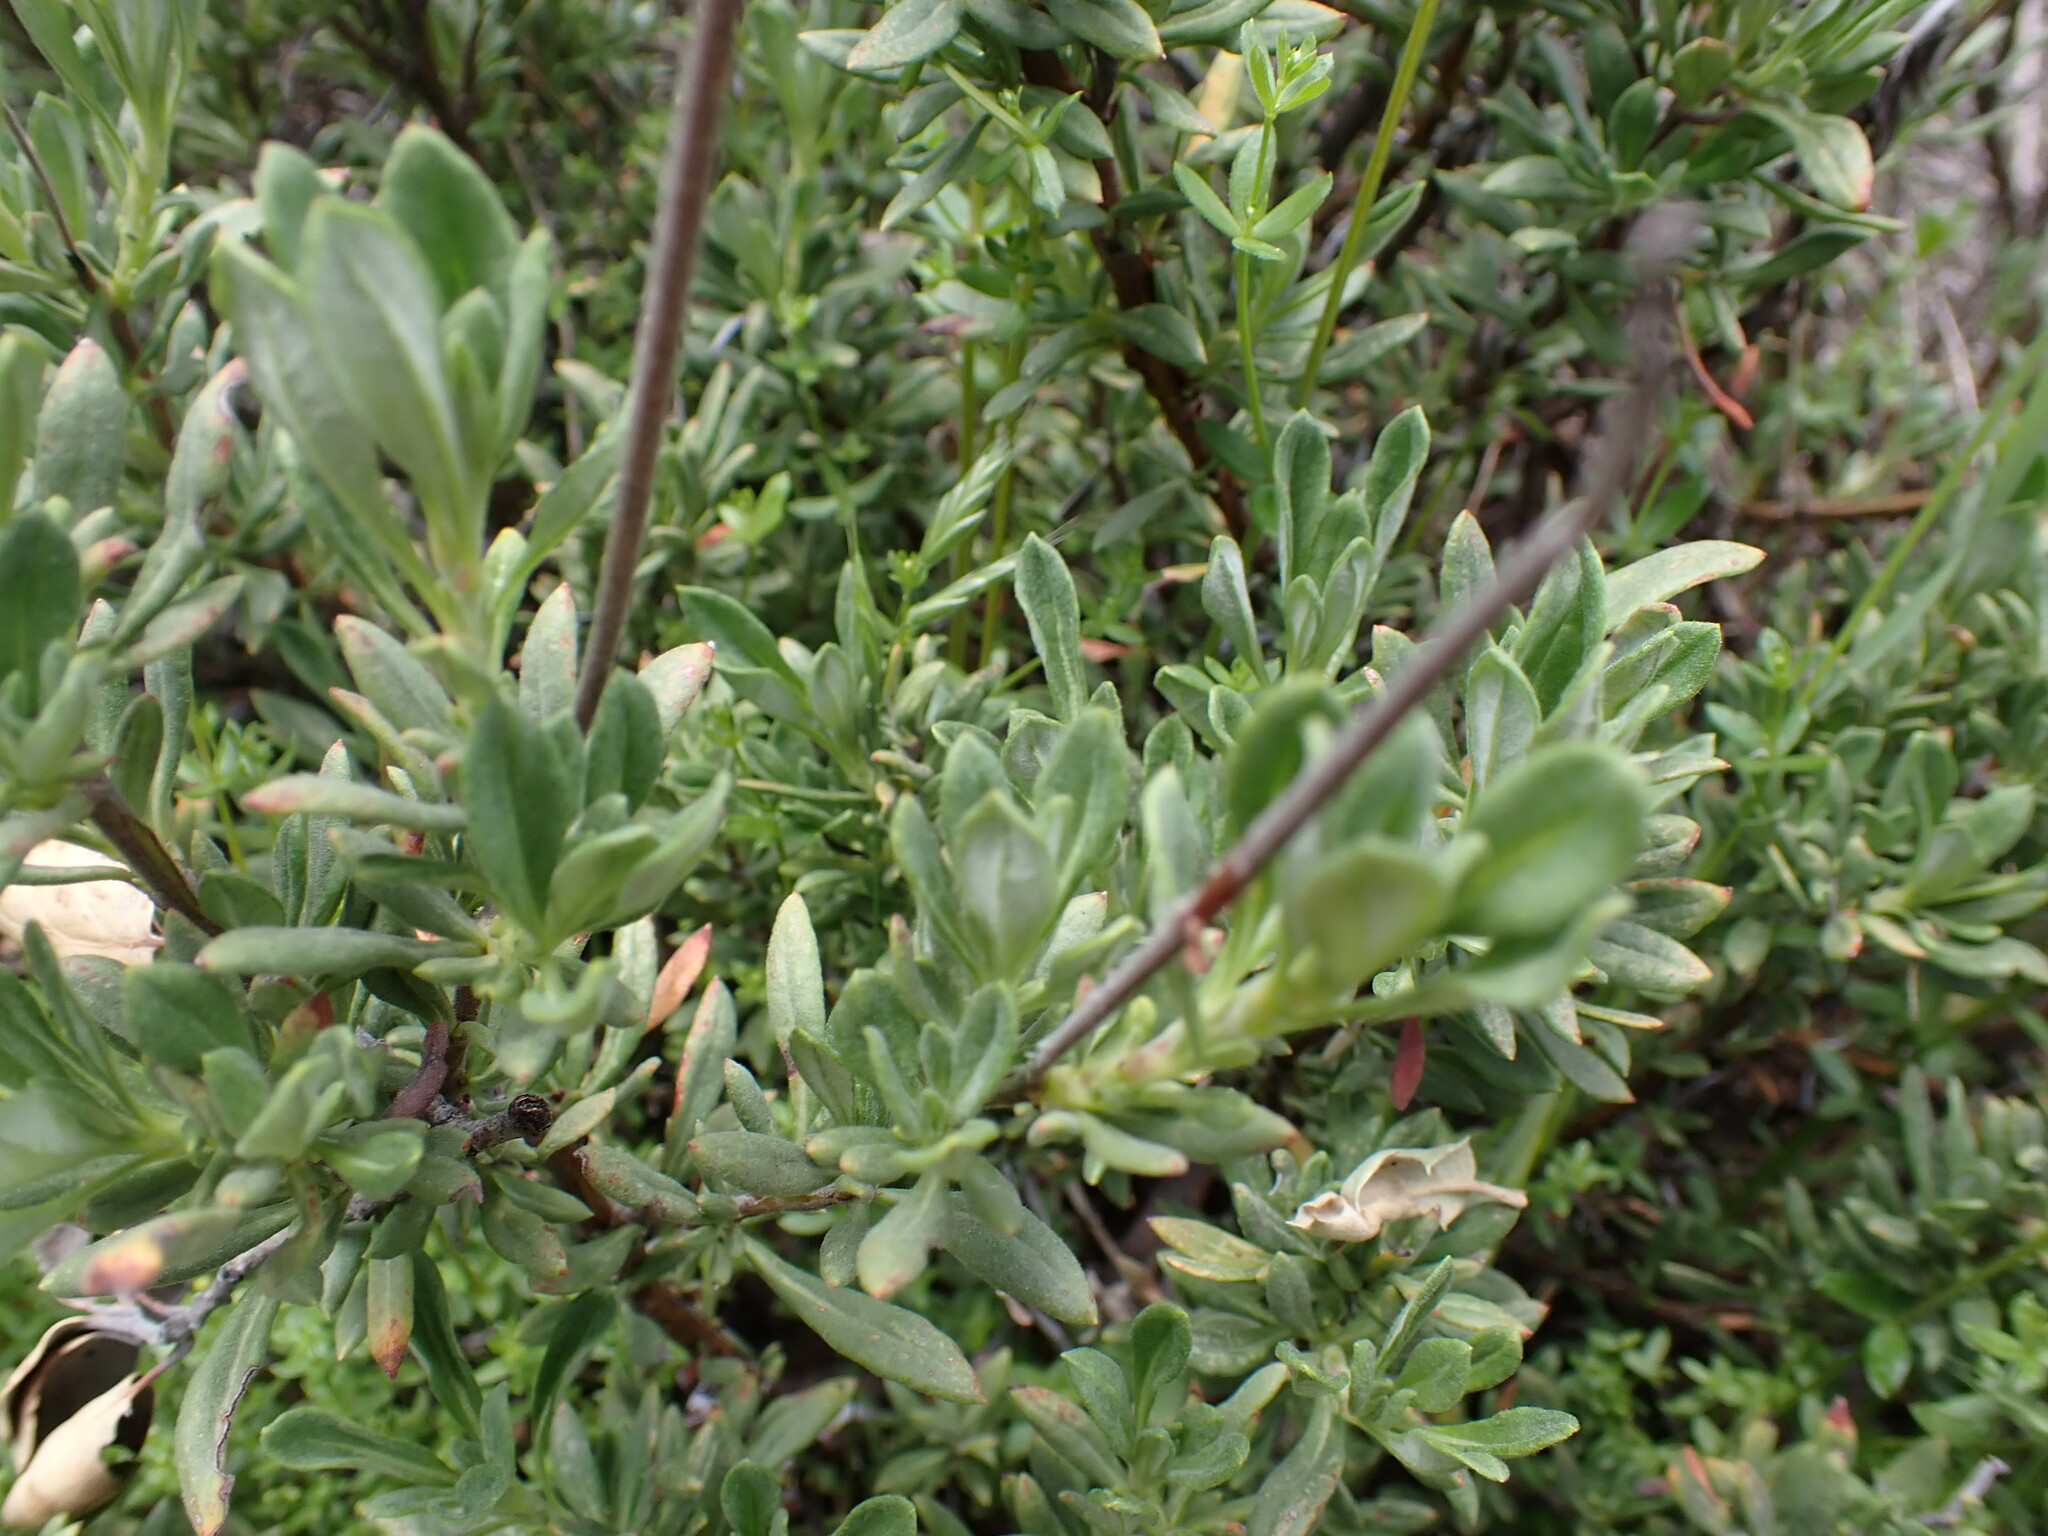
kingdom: Plantae
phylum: Tracheophyta
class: Magnoliopsida
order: Ericales
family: Polemoniaceae
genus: Leptosiphon
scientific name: Leptosiphon parviflorus
